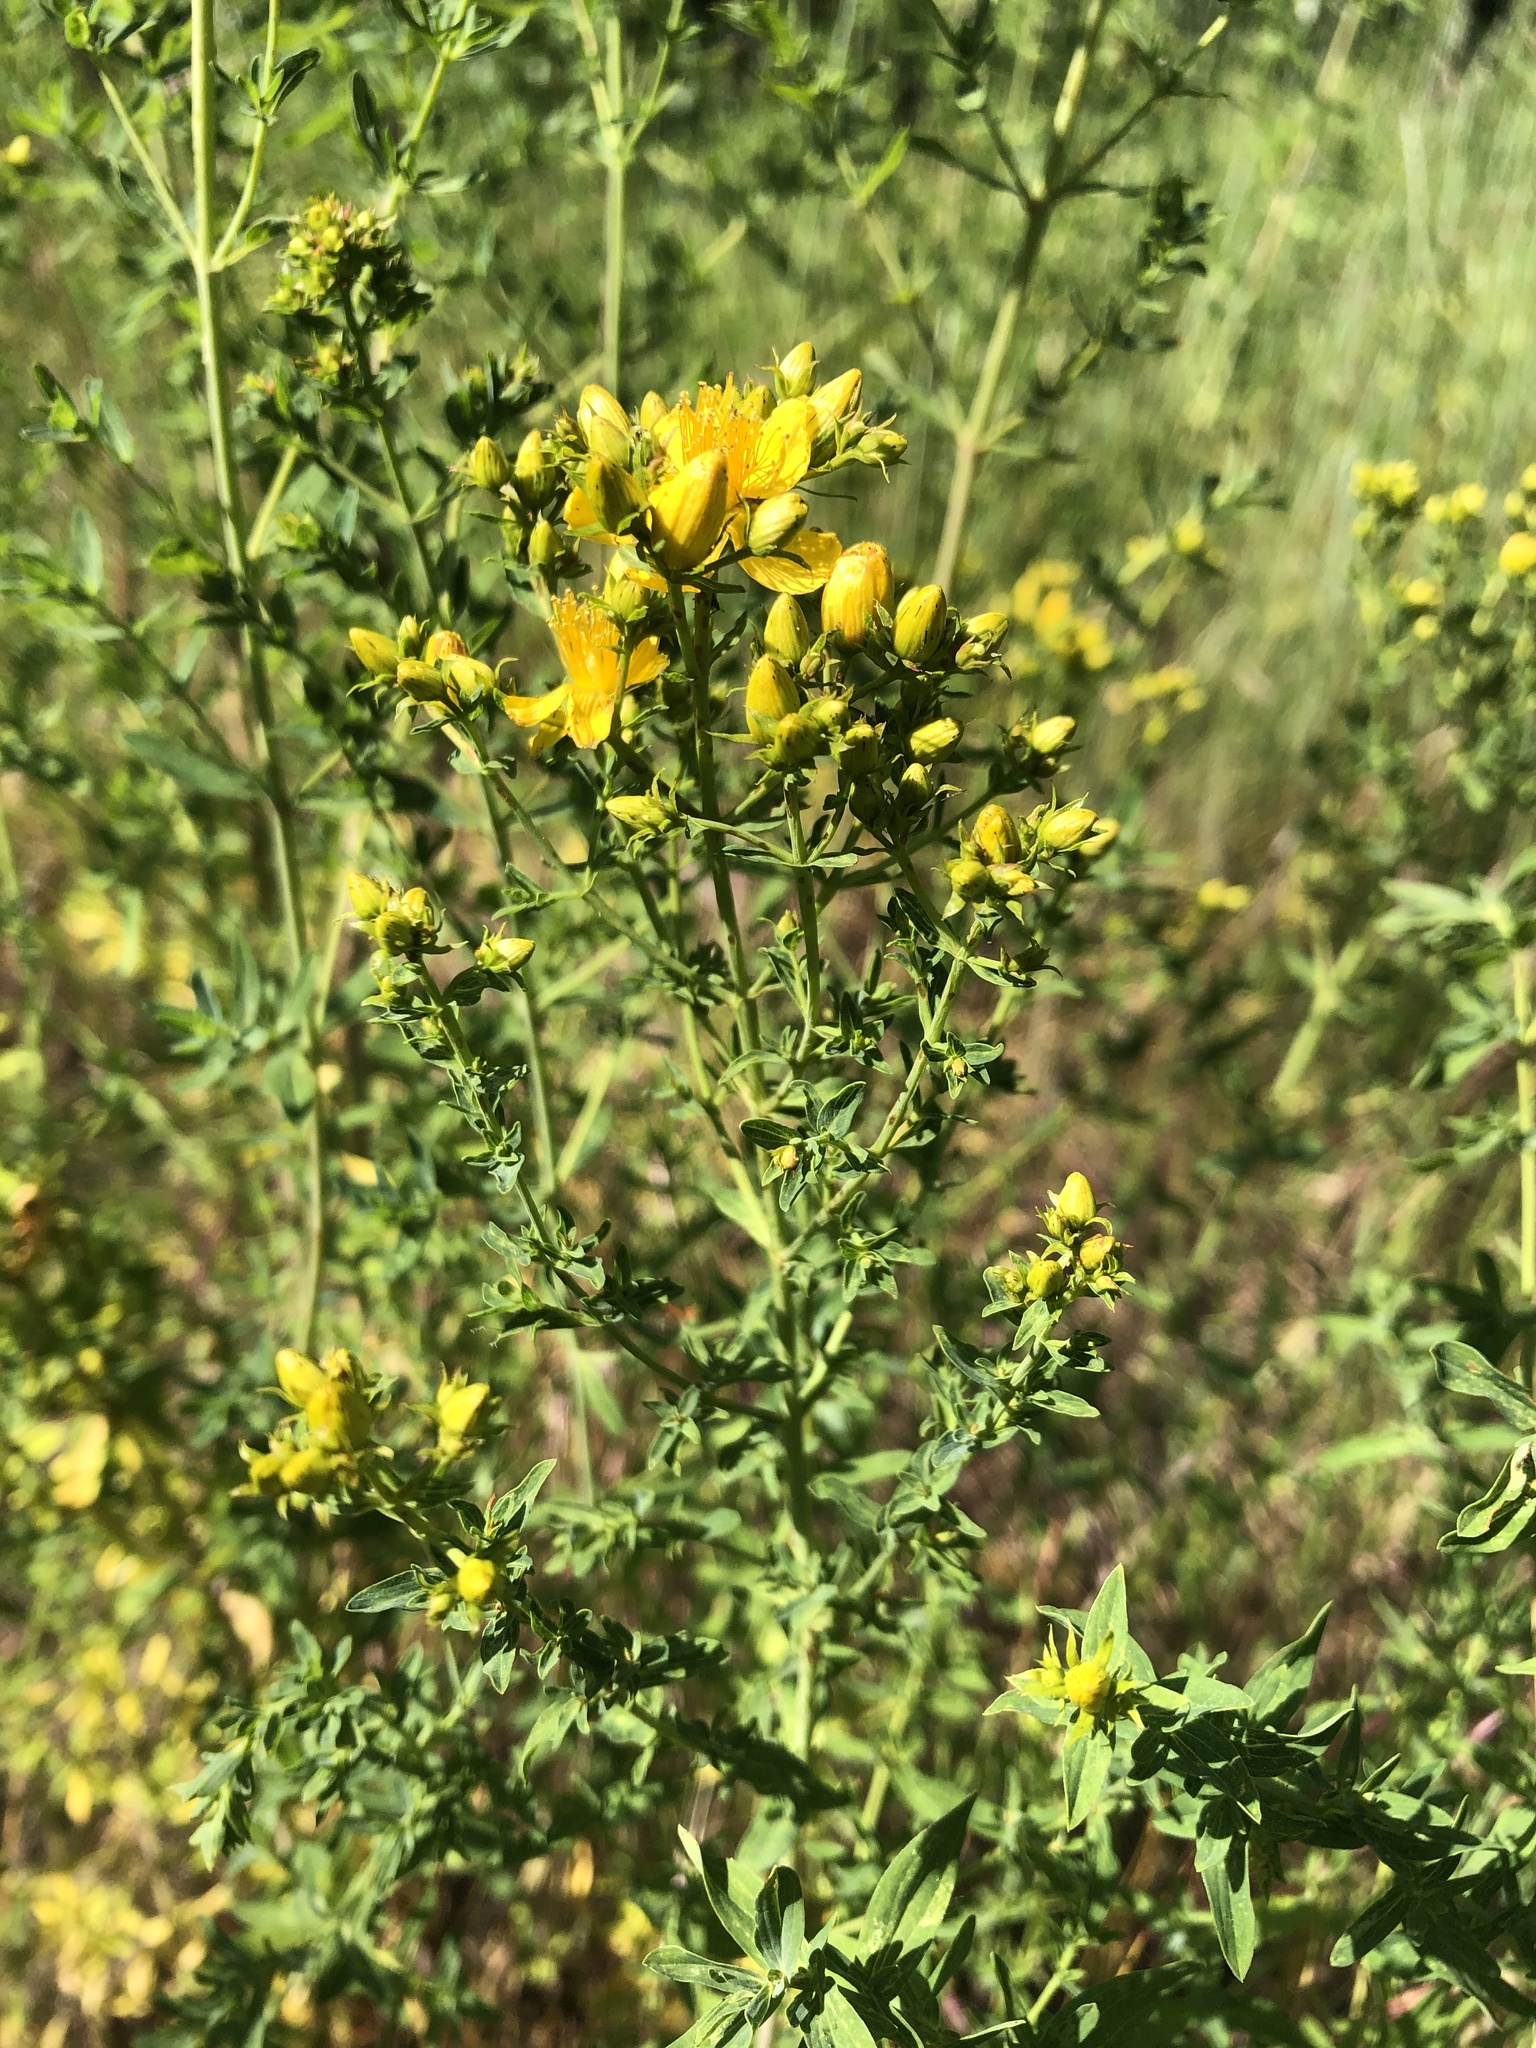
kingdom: Plantae
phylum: Tracheophyta
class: Magnoliopsida
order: Malpighiales
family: Hypericaceae
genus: Hypericum
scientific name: Hypericum perforatum
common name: Common st. johnswort
